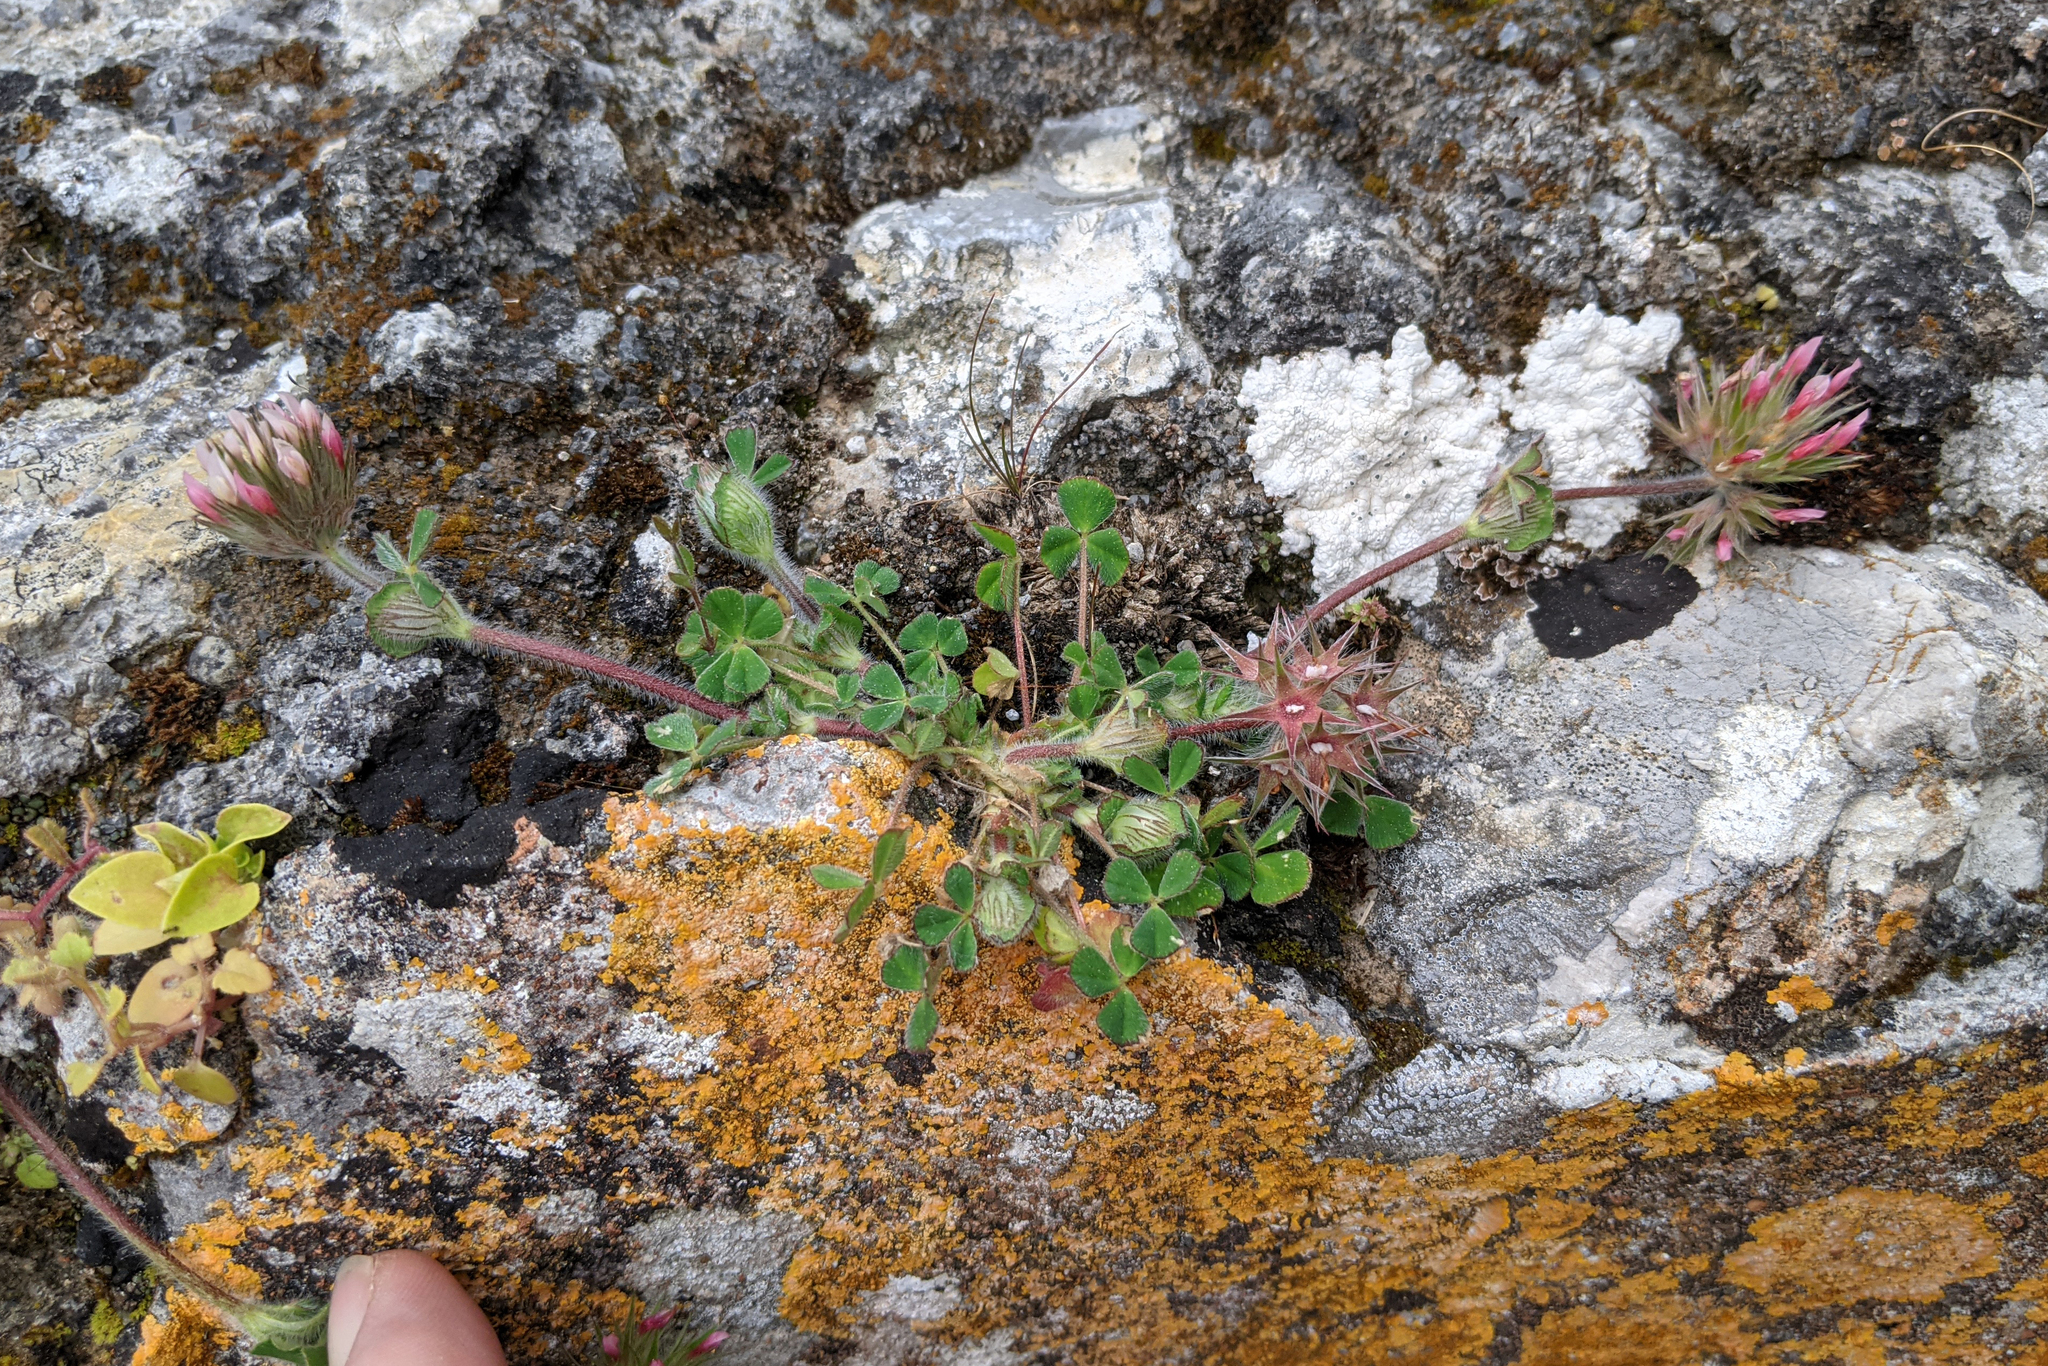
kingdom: Plantae
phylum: Tracheophyta
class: Magnoliopsida
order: Fabales
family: Fabaceae
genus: Trifolium
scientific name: Trifolium stellatum
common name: Starry clover
